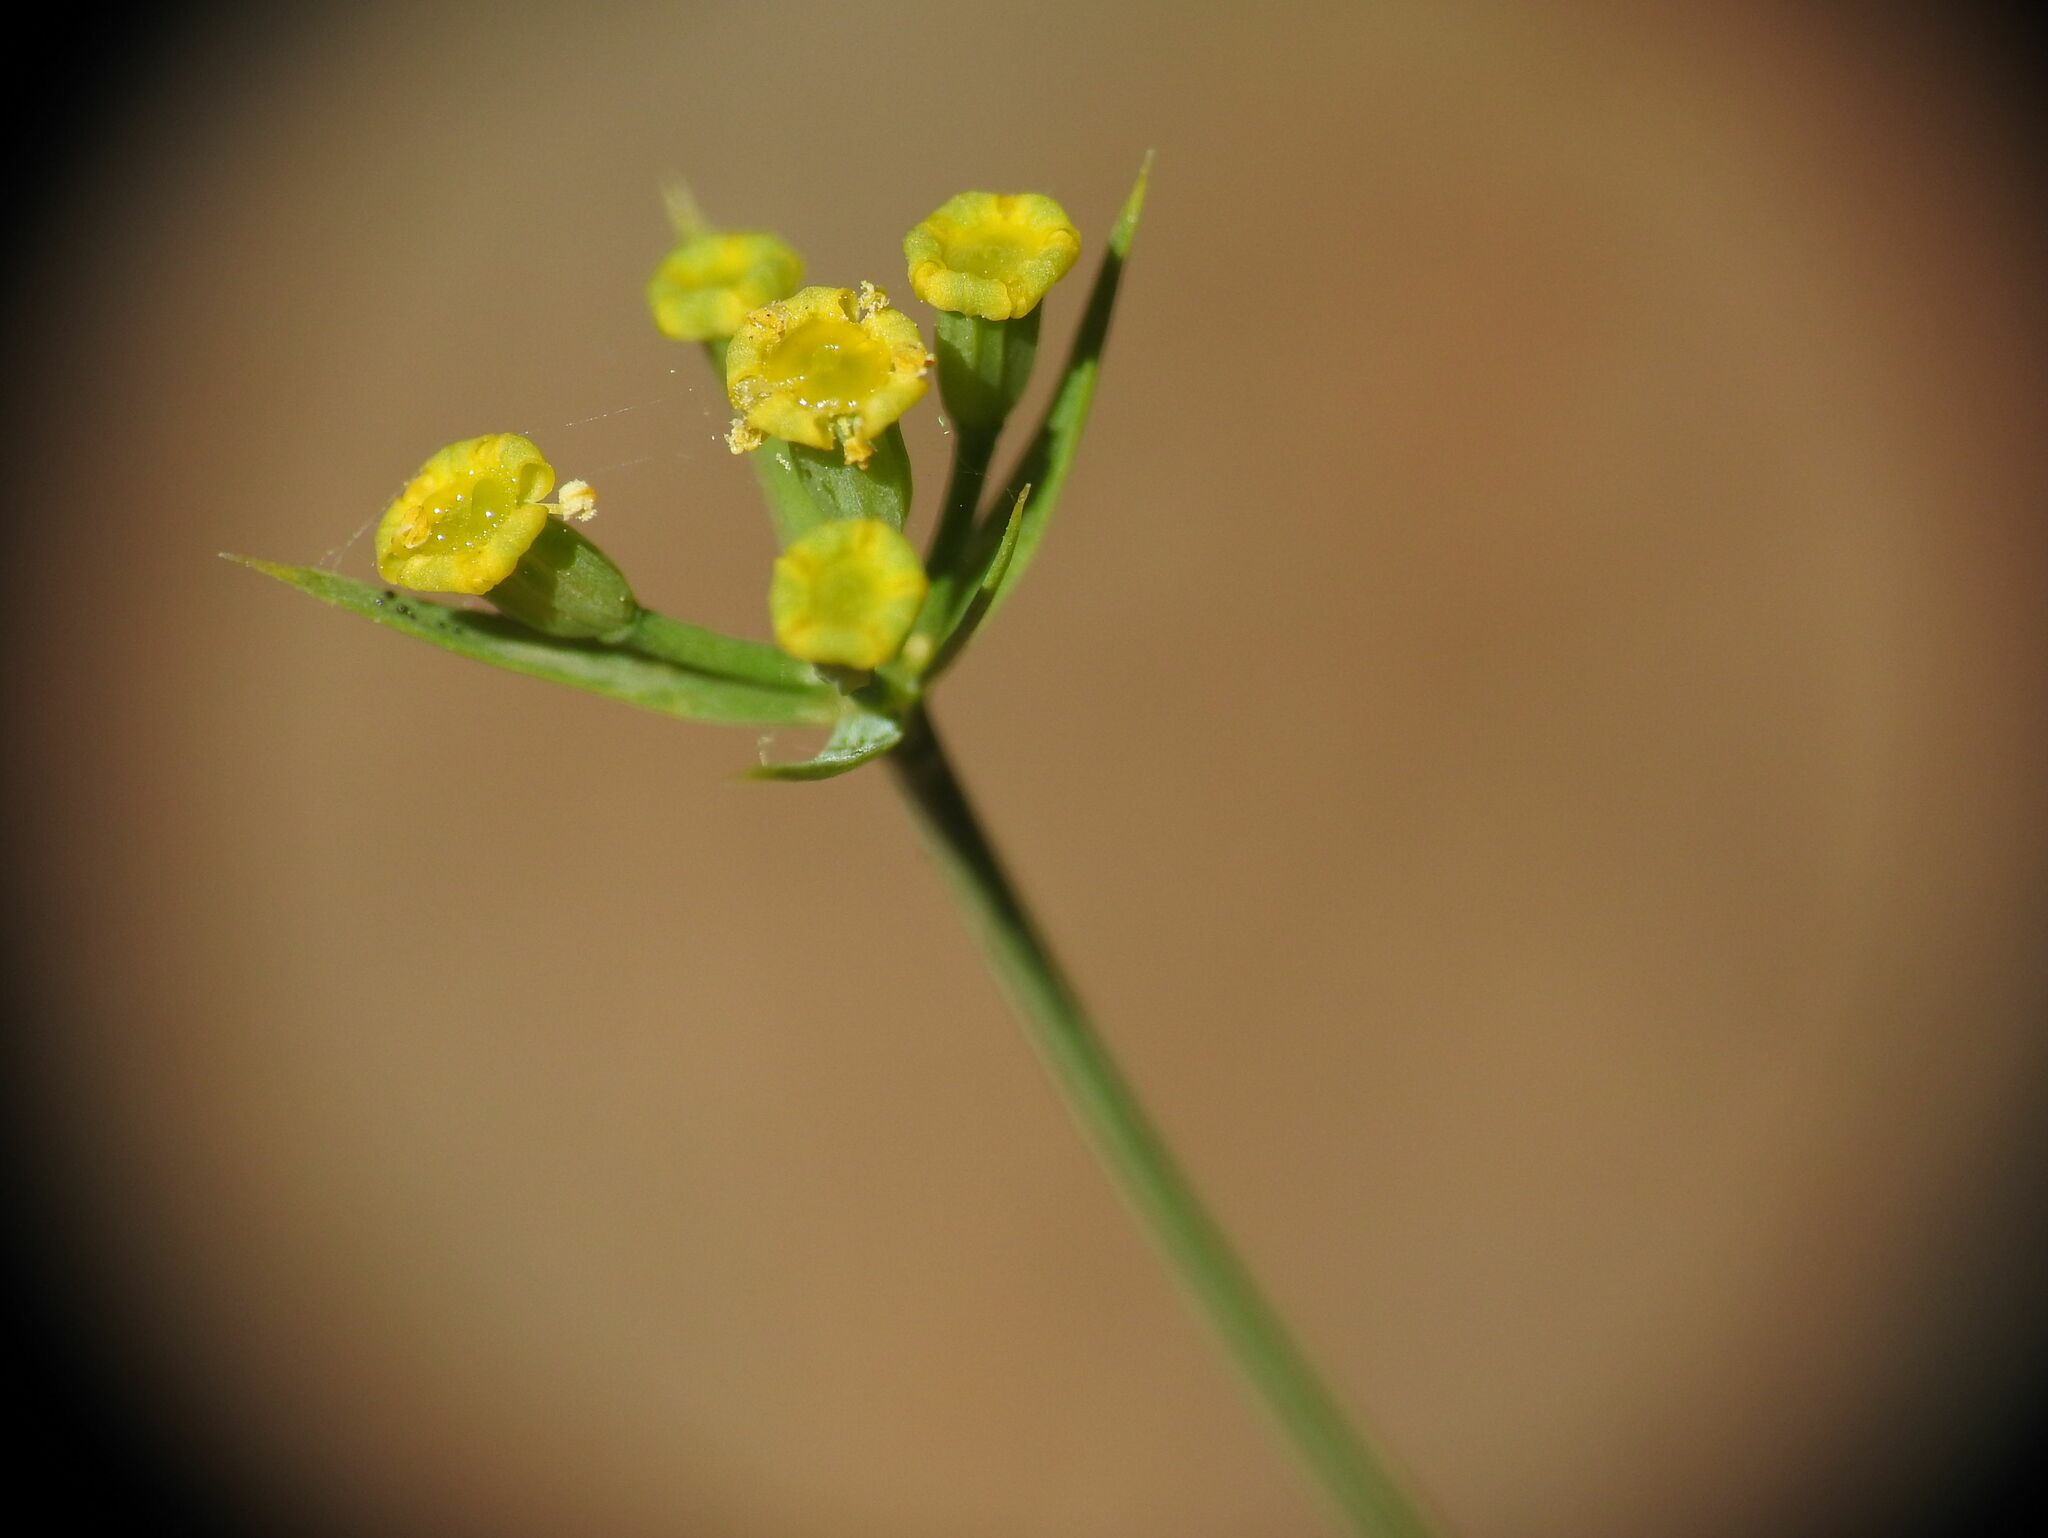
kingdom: Plantae
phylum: Tracheophyta
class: Magnoliopsida
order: Apiales
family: Apiaceae
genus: Bupleurum
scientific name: Bupleurum praealtum
